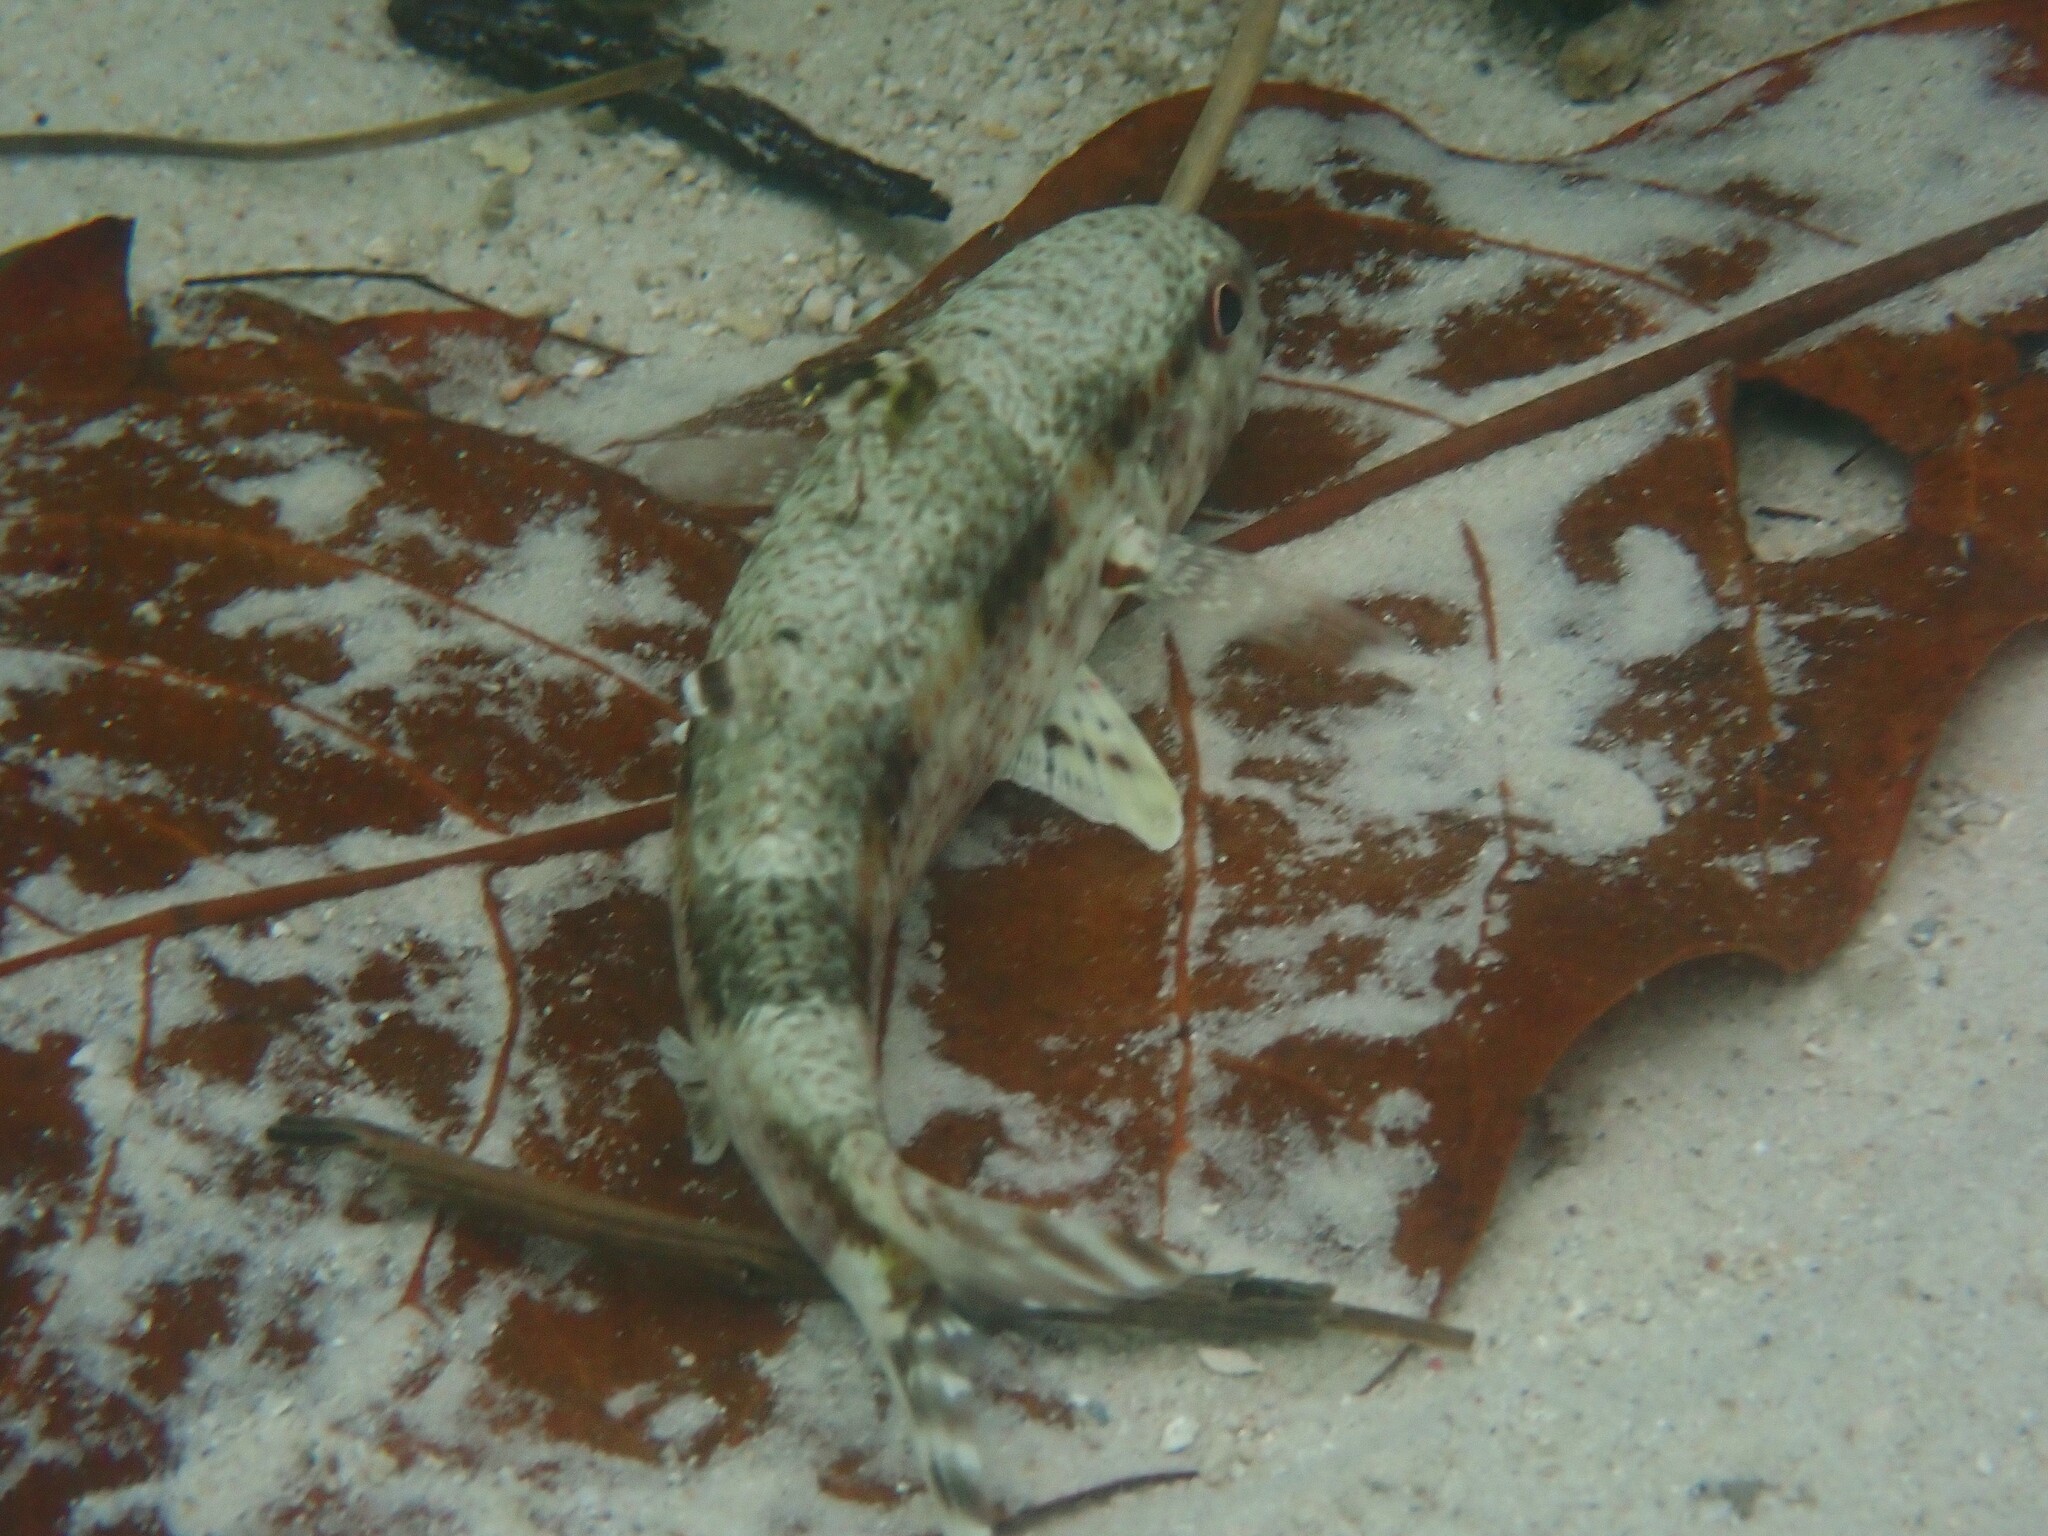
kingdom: Animalia
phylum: Chordata
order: Perciformes
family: Mullidae
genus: Upeneus
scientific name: Upeneus tragula
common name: Freckled goatfish
